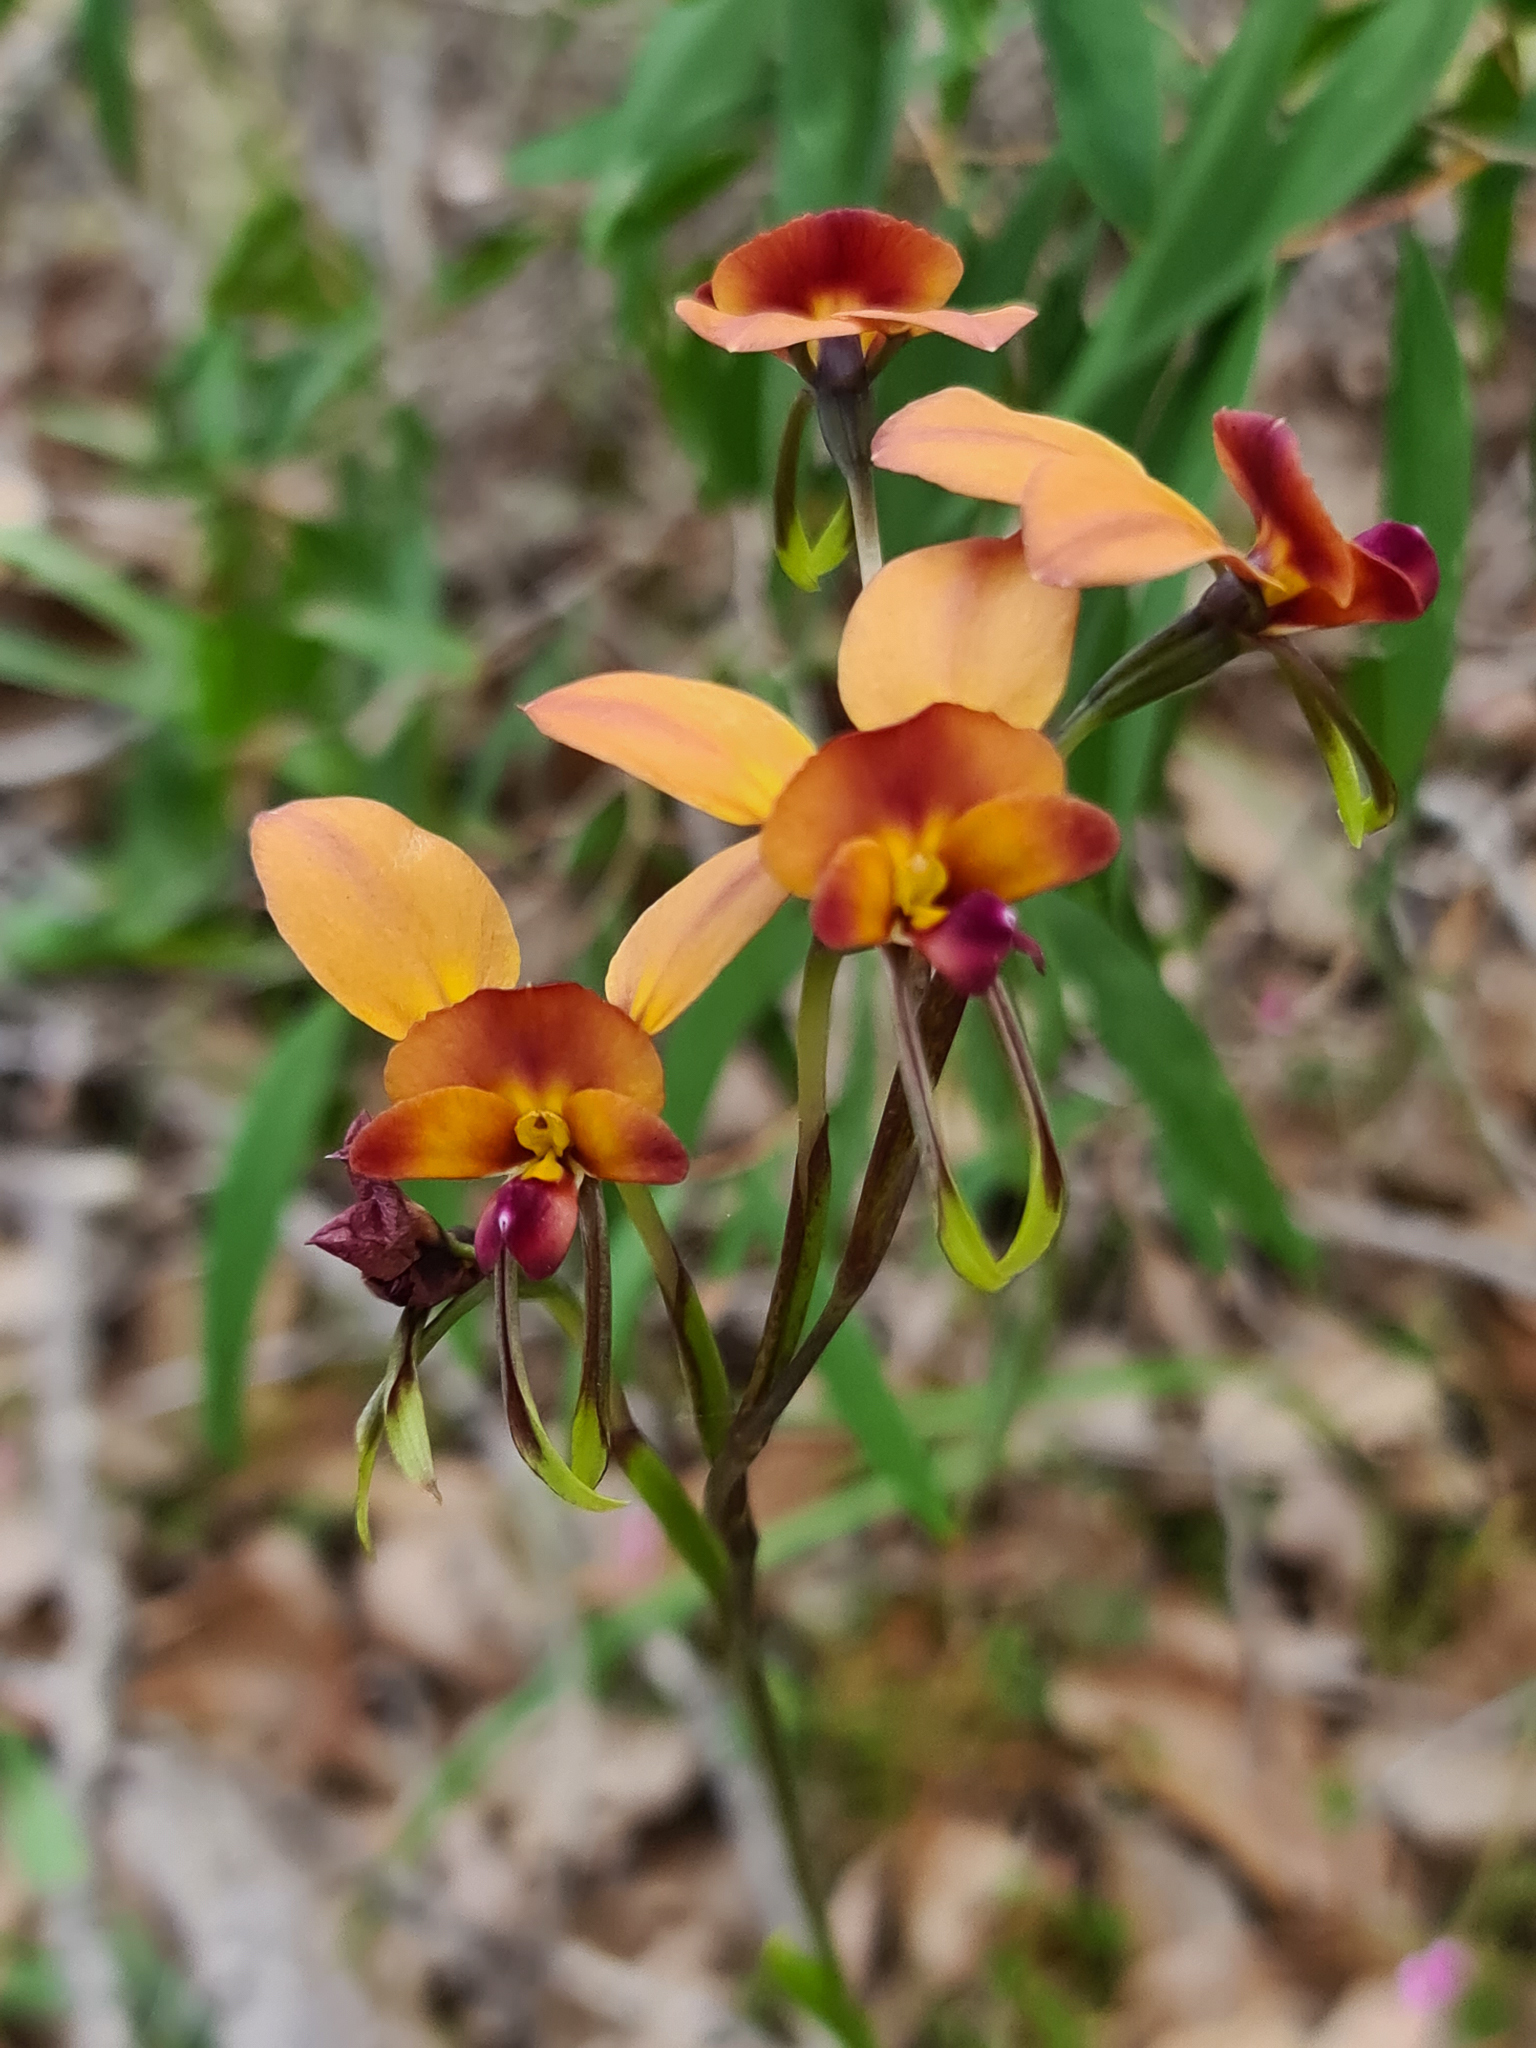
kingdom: Plantae
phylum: Tracheophyta
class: Liliopsida
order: Asparagales
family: Orchidaceae
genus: Diuris
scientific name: Diuris jonesii
